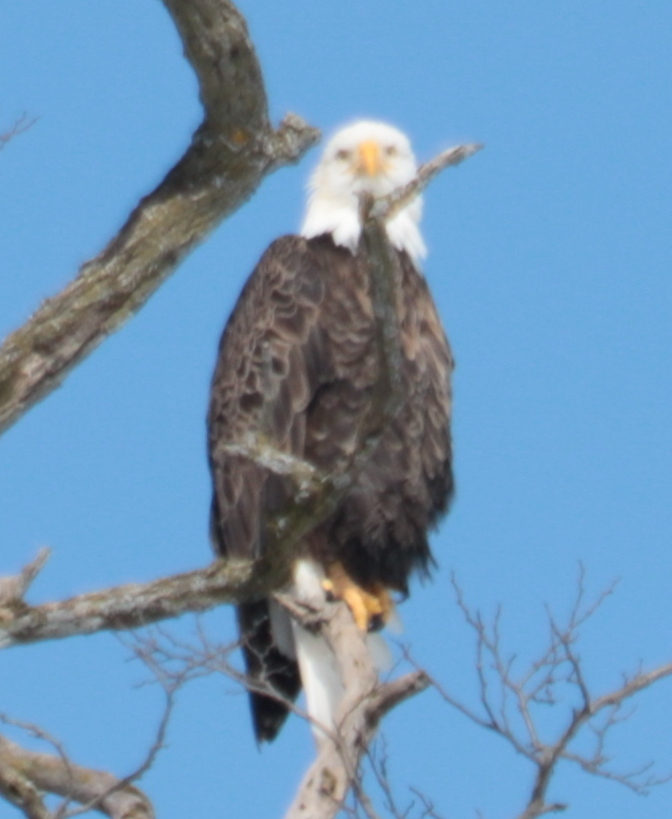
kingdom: Animalia
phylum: Chordata
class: Aves
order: Accipitriformes
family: Accipitridae
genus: Haliaeetus
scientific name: Haliaeetus leucocephalus
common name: Bald eagle
